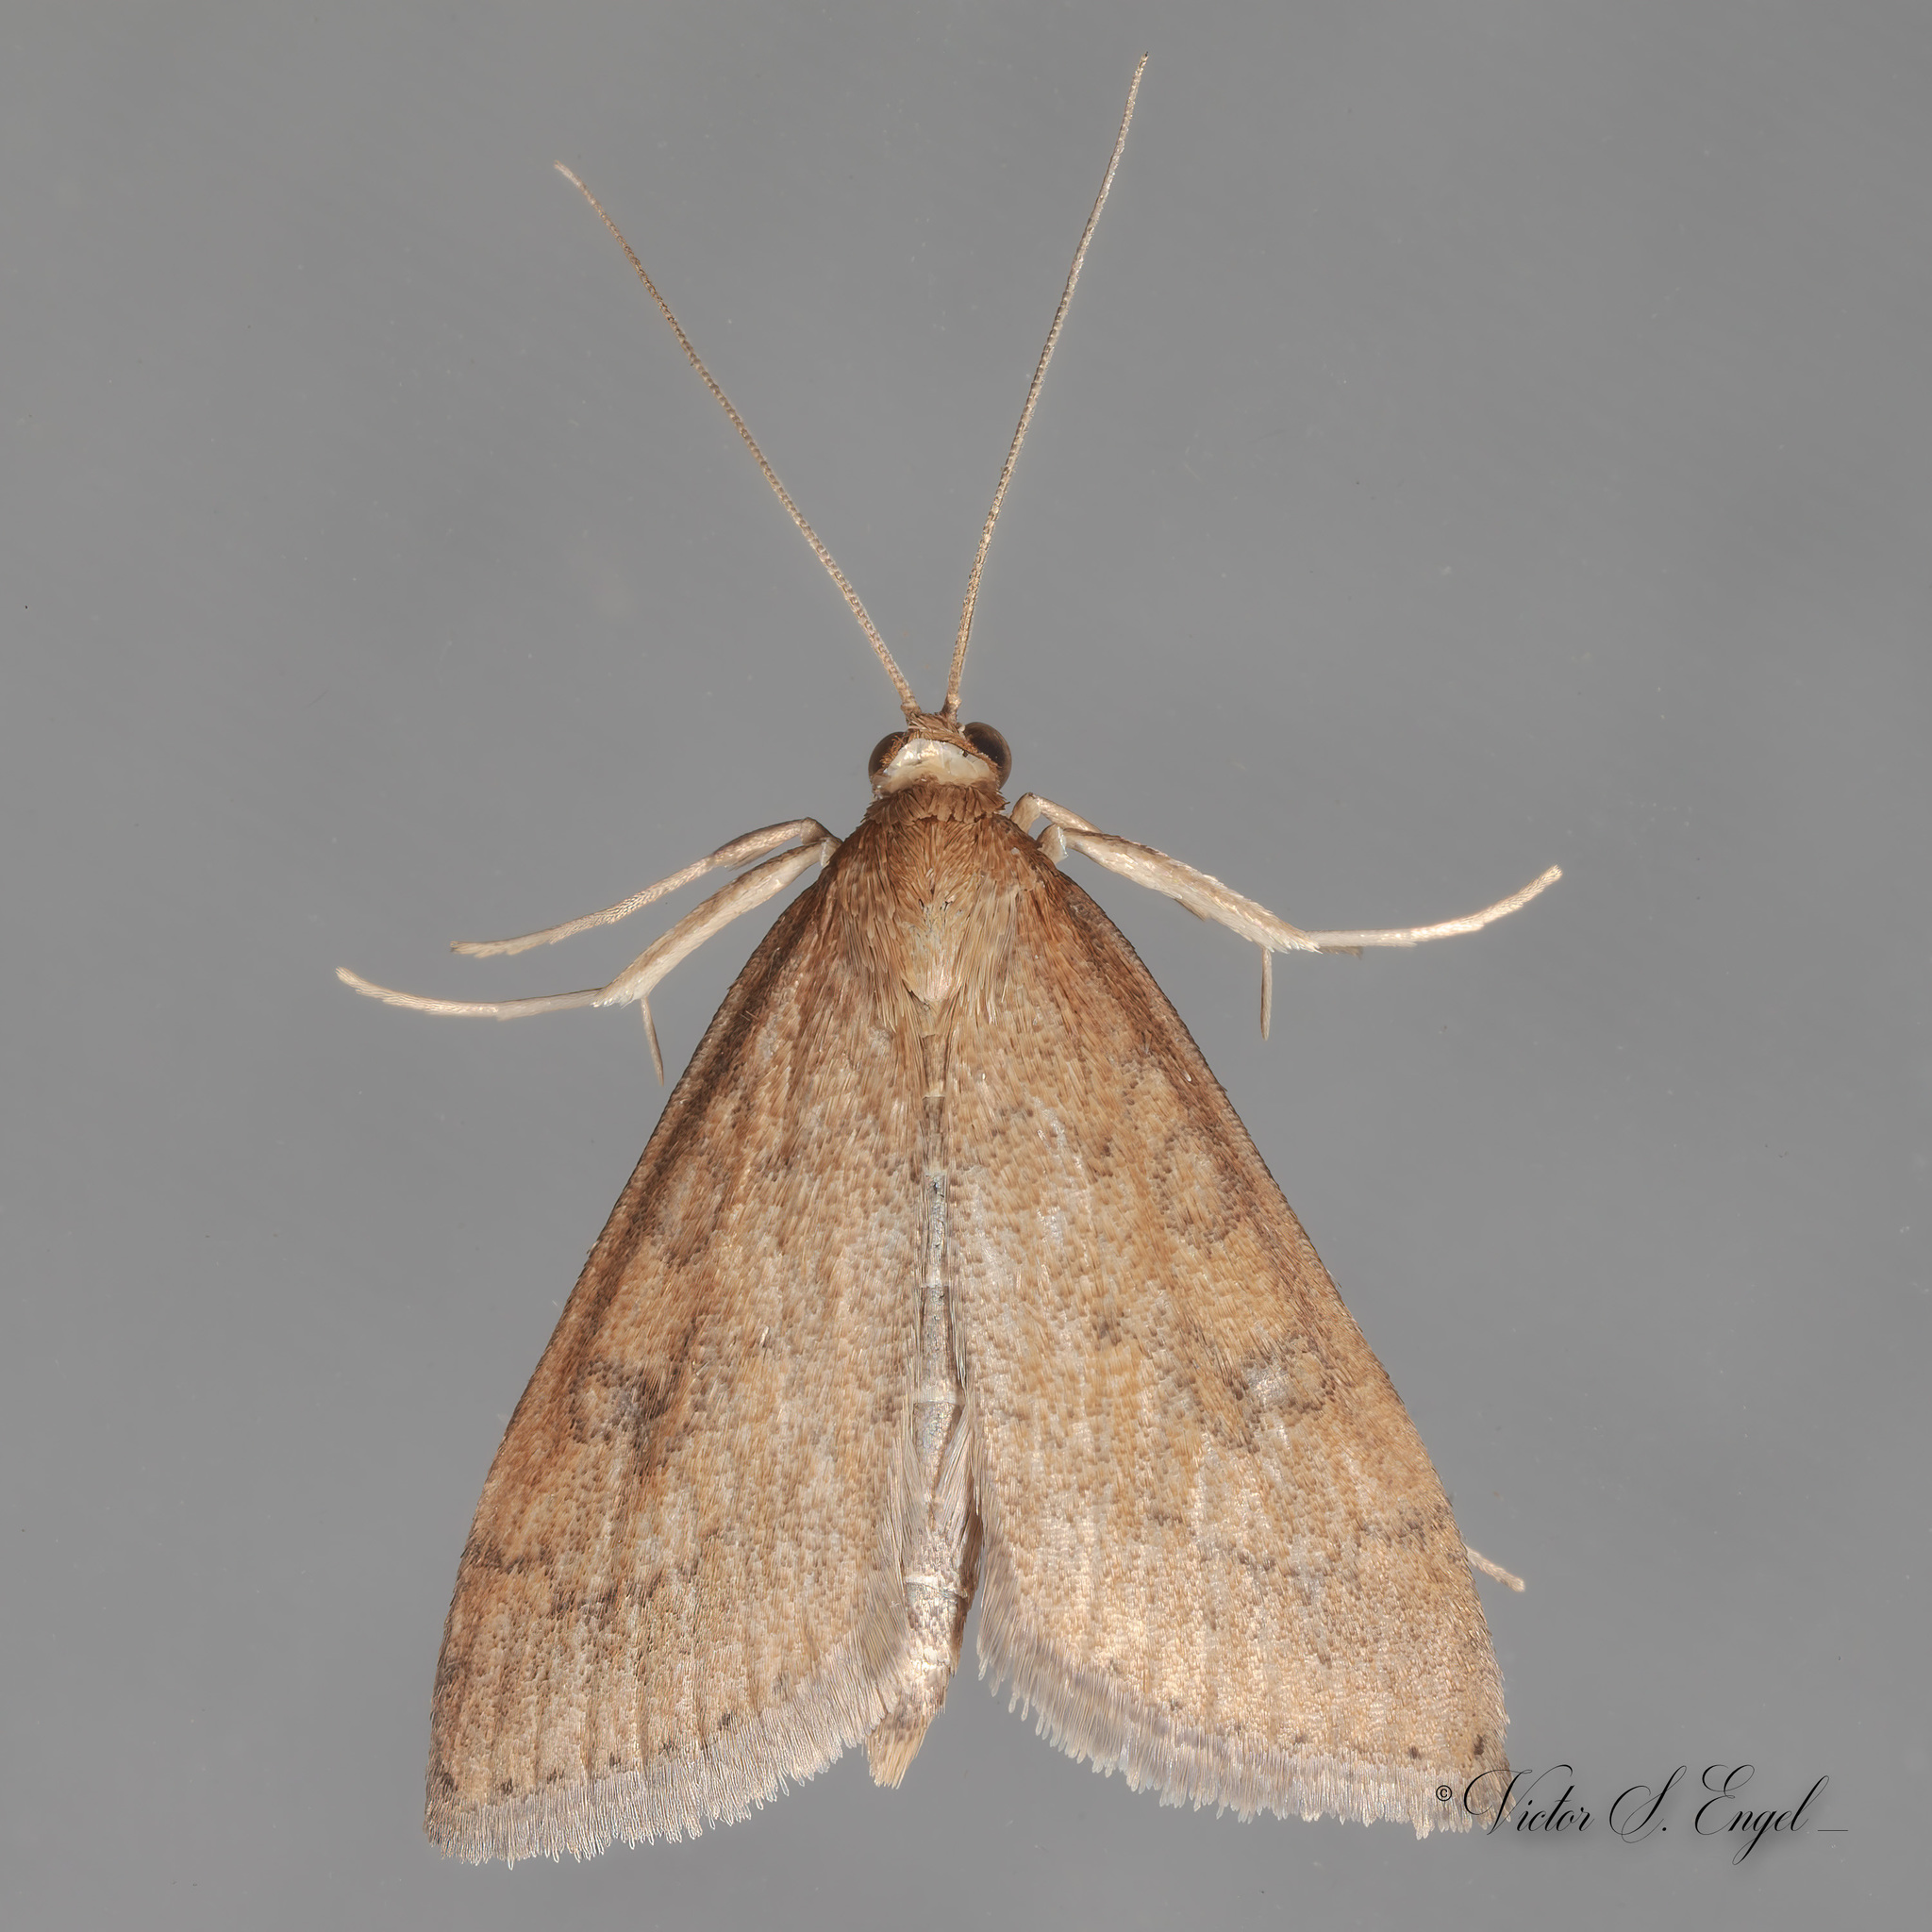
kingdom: Animalia
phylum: Arthropoda
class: Insecta
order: Lepidoptera
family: Crambidae
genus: Udea
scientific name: Udea rubigalis
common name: Celery leaftier moth
